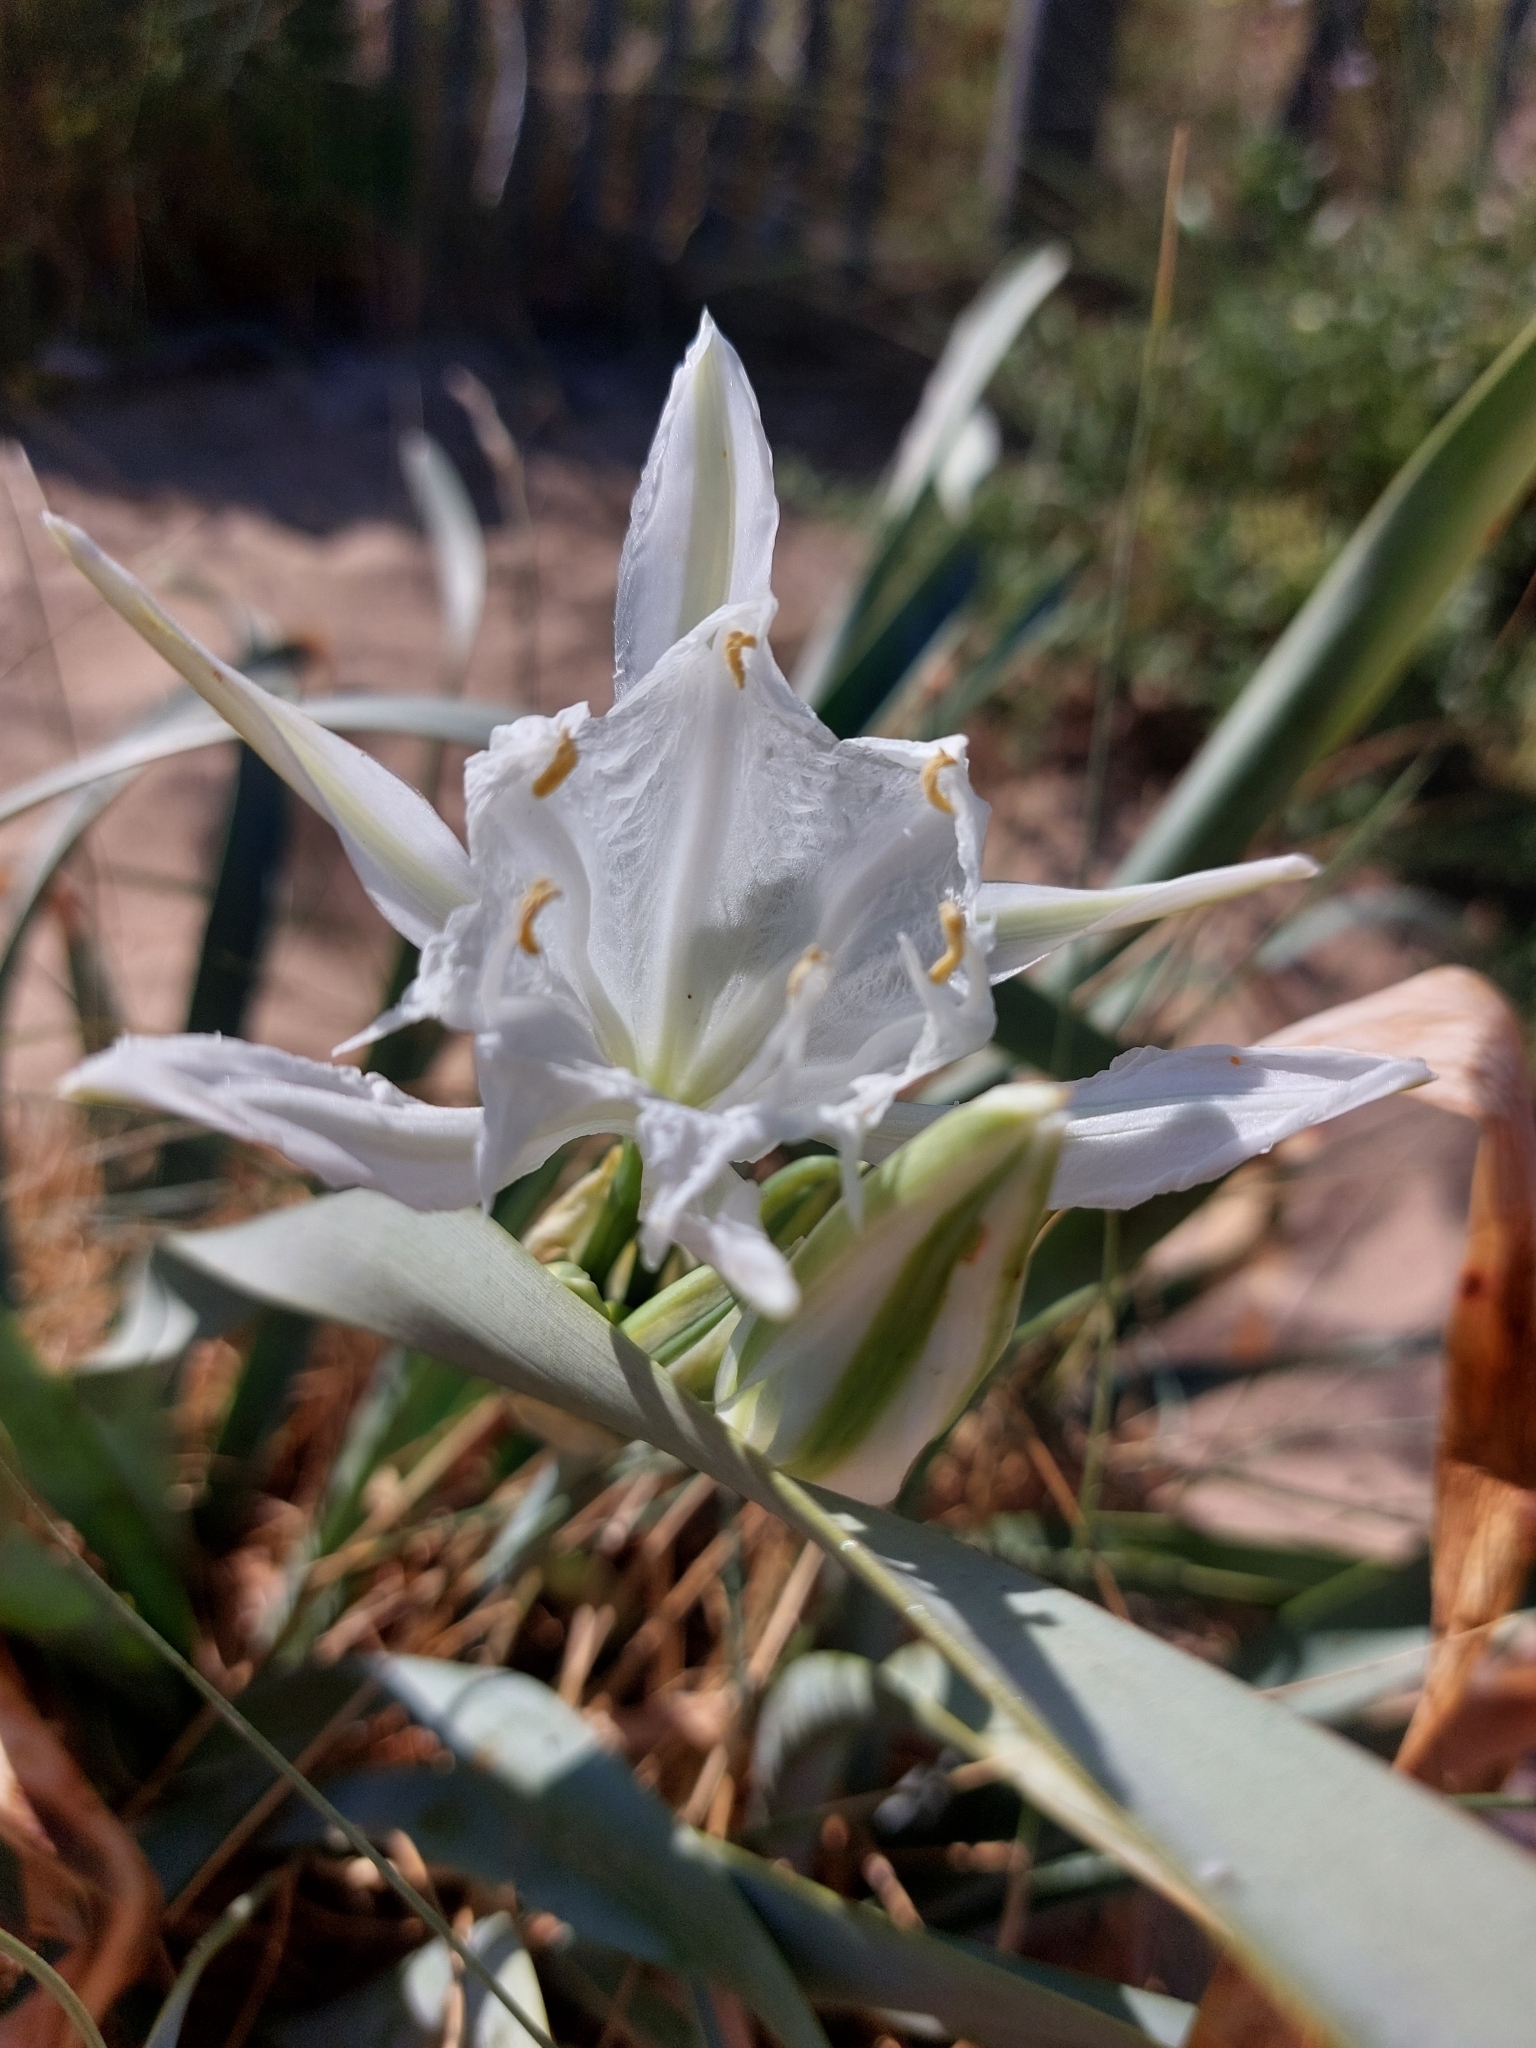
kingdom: Plantae
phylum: Tracheophyta
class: Liliopsida
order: Asparagales
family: Amaryllidaceae
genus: Pancratium
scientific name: Pancratium maritimum
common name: Sea-daffodil
